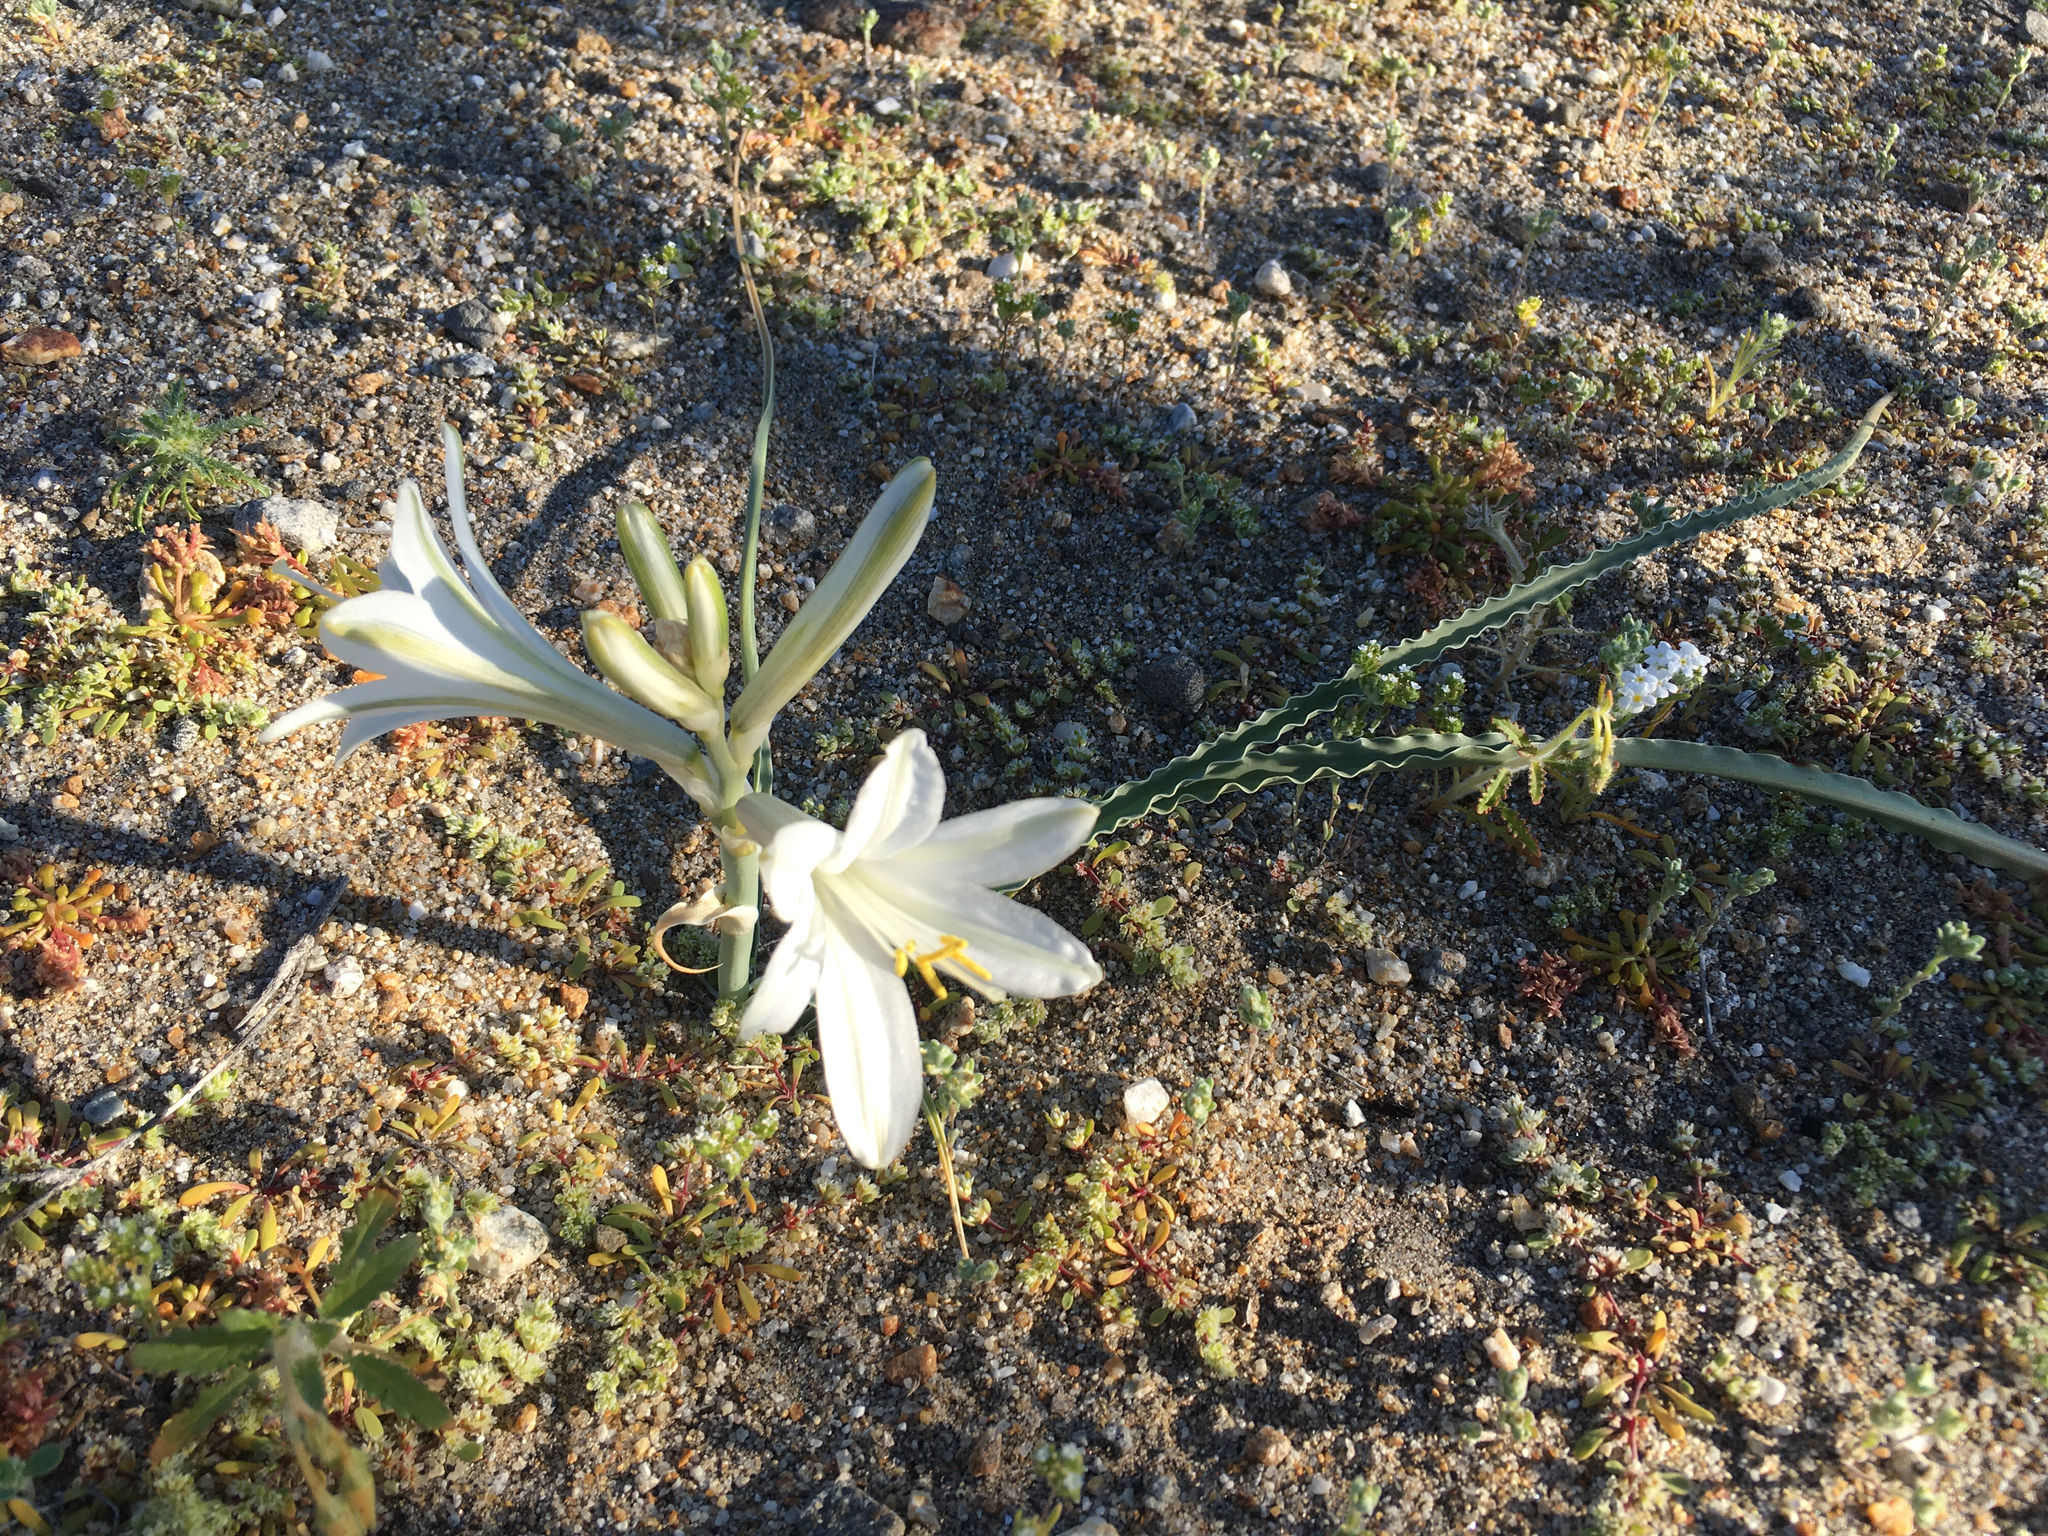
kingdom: Plantae
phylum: Tracheophyta
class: Liliopsida
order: Asparagales
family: Asparagaceae
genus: Hesperocallis
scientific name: Hesperocallis undulata
